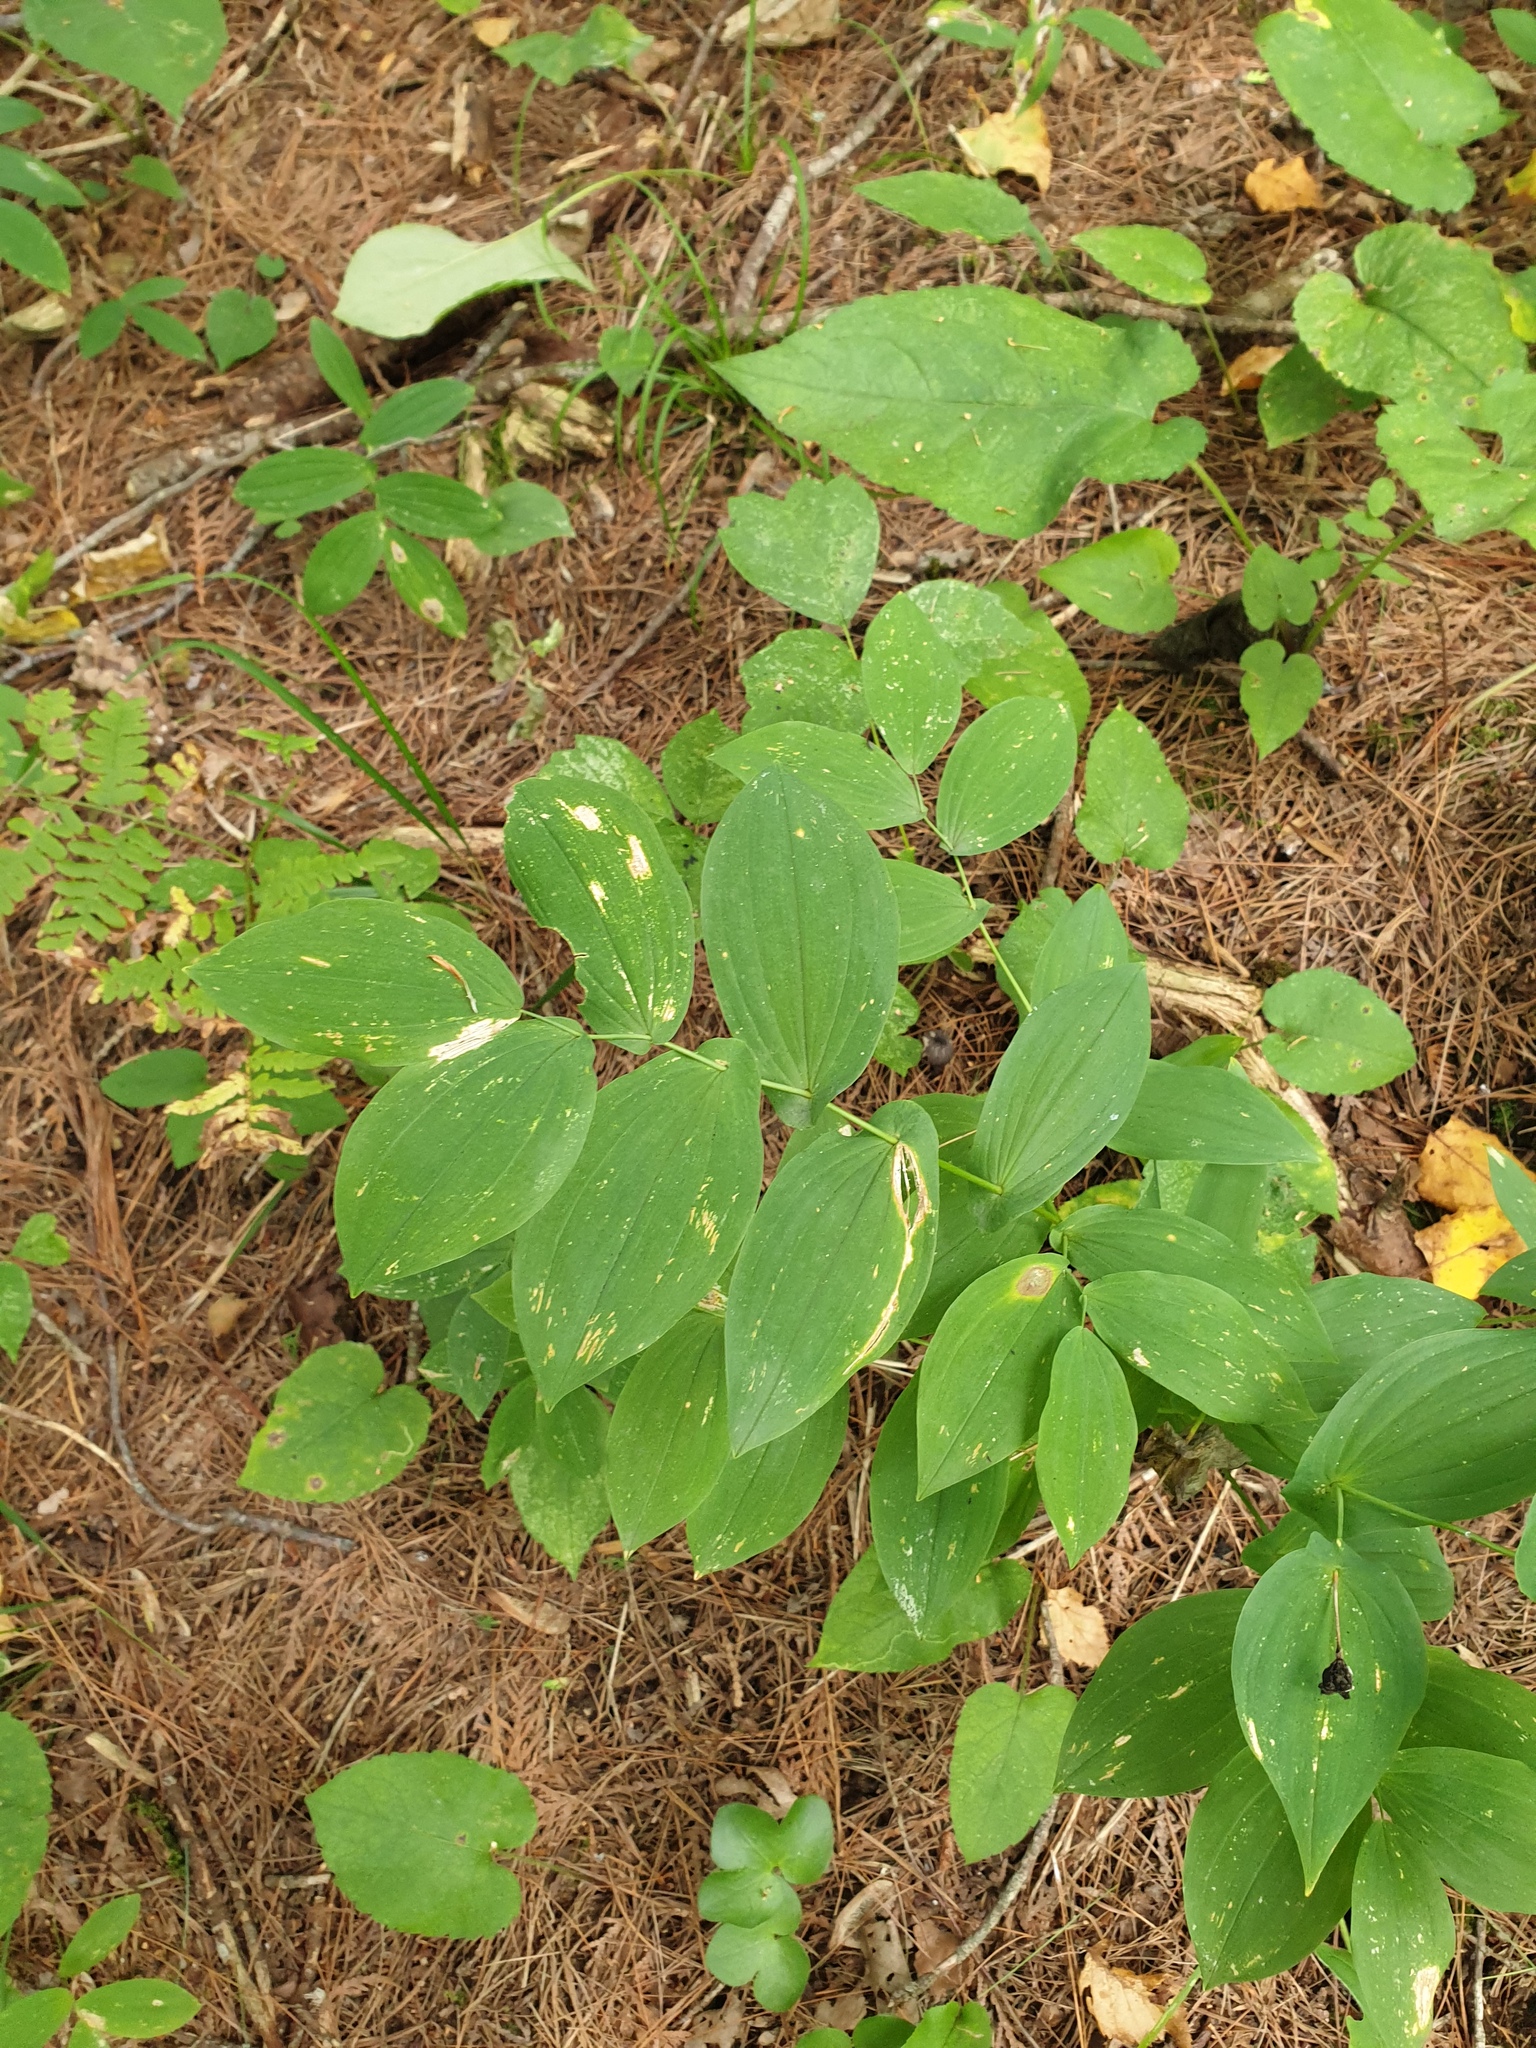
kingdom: Plantae
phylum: Tracheophyta
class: Liliopsida
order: Liliales
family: Colchicaceae
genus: Uvularia
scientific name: Uvularia grandiflora
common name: Bellwort
